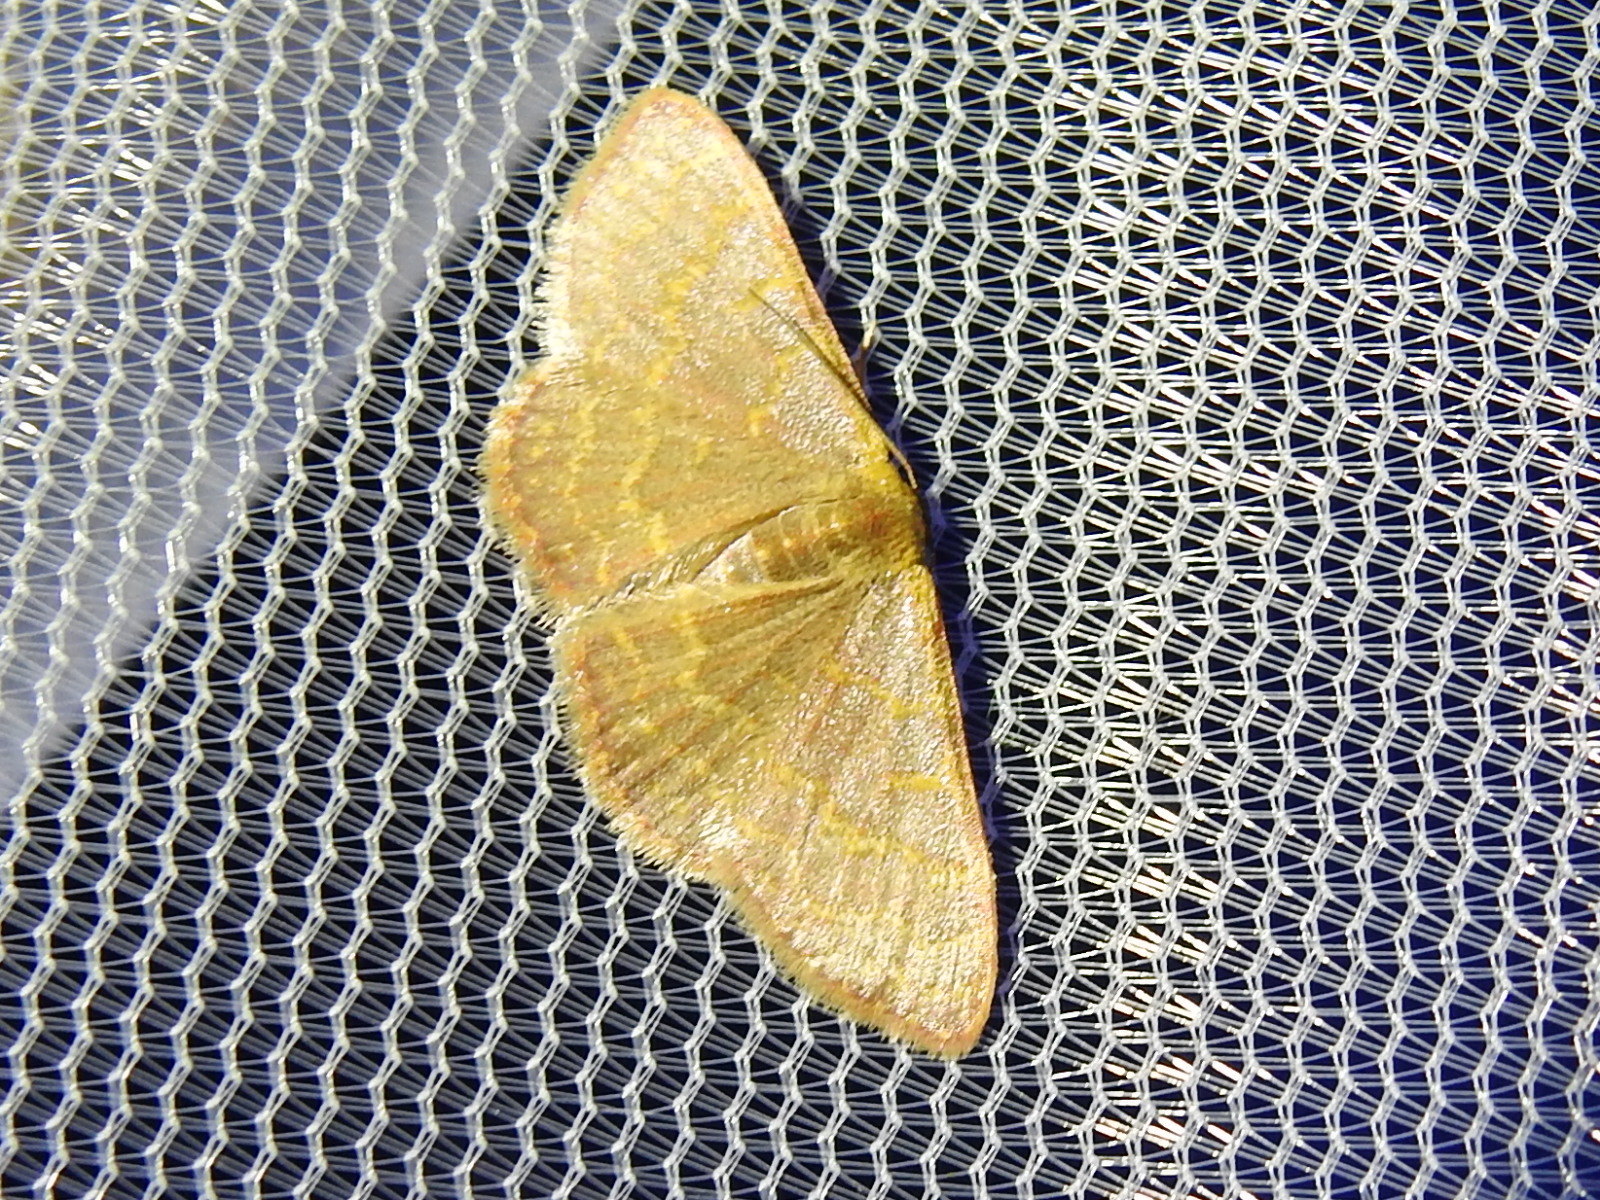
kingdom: Animalia
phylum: Arthropoda
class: Insecta
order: Lepidoptera
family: Geometridae
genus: Leptostales
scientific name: Leptostales pannaria
